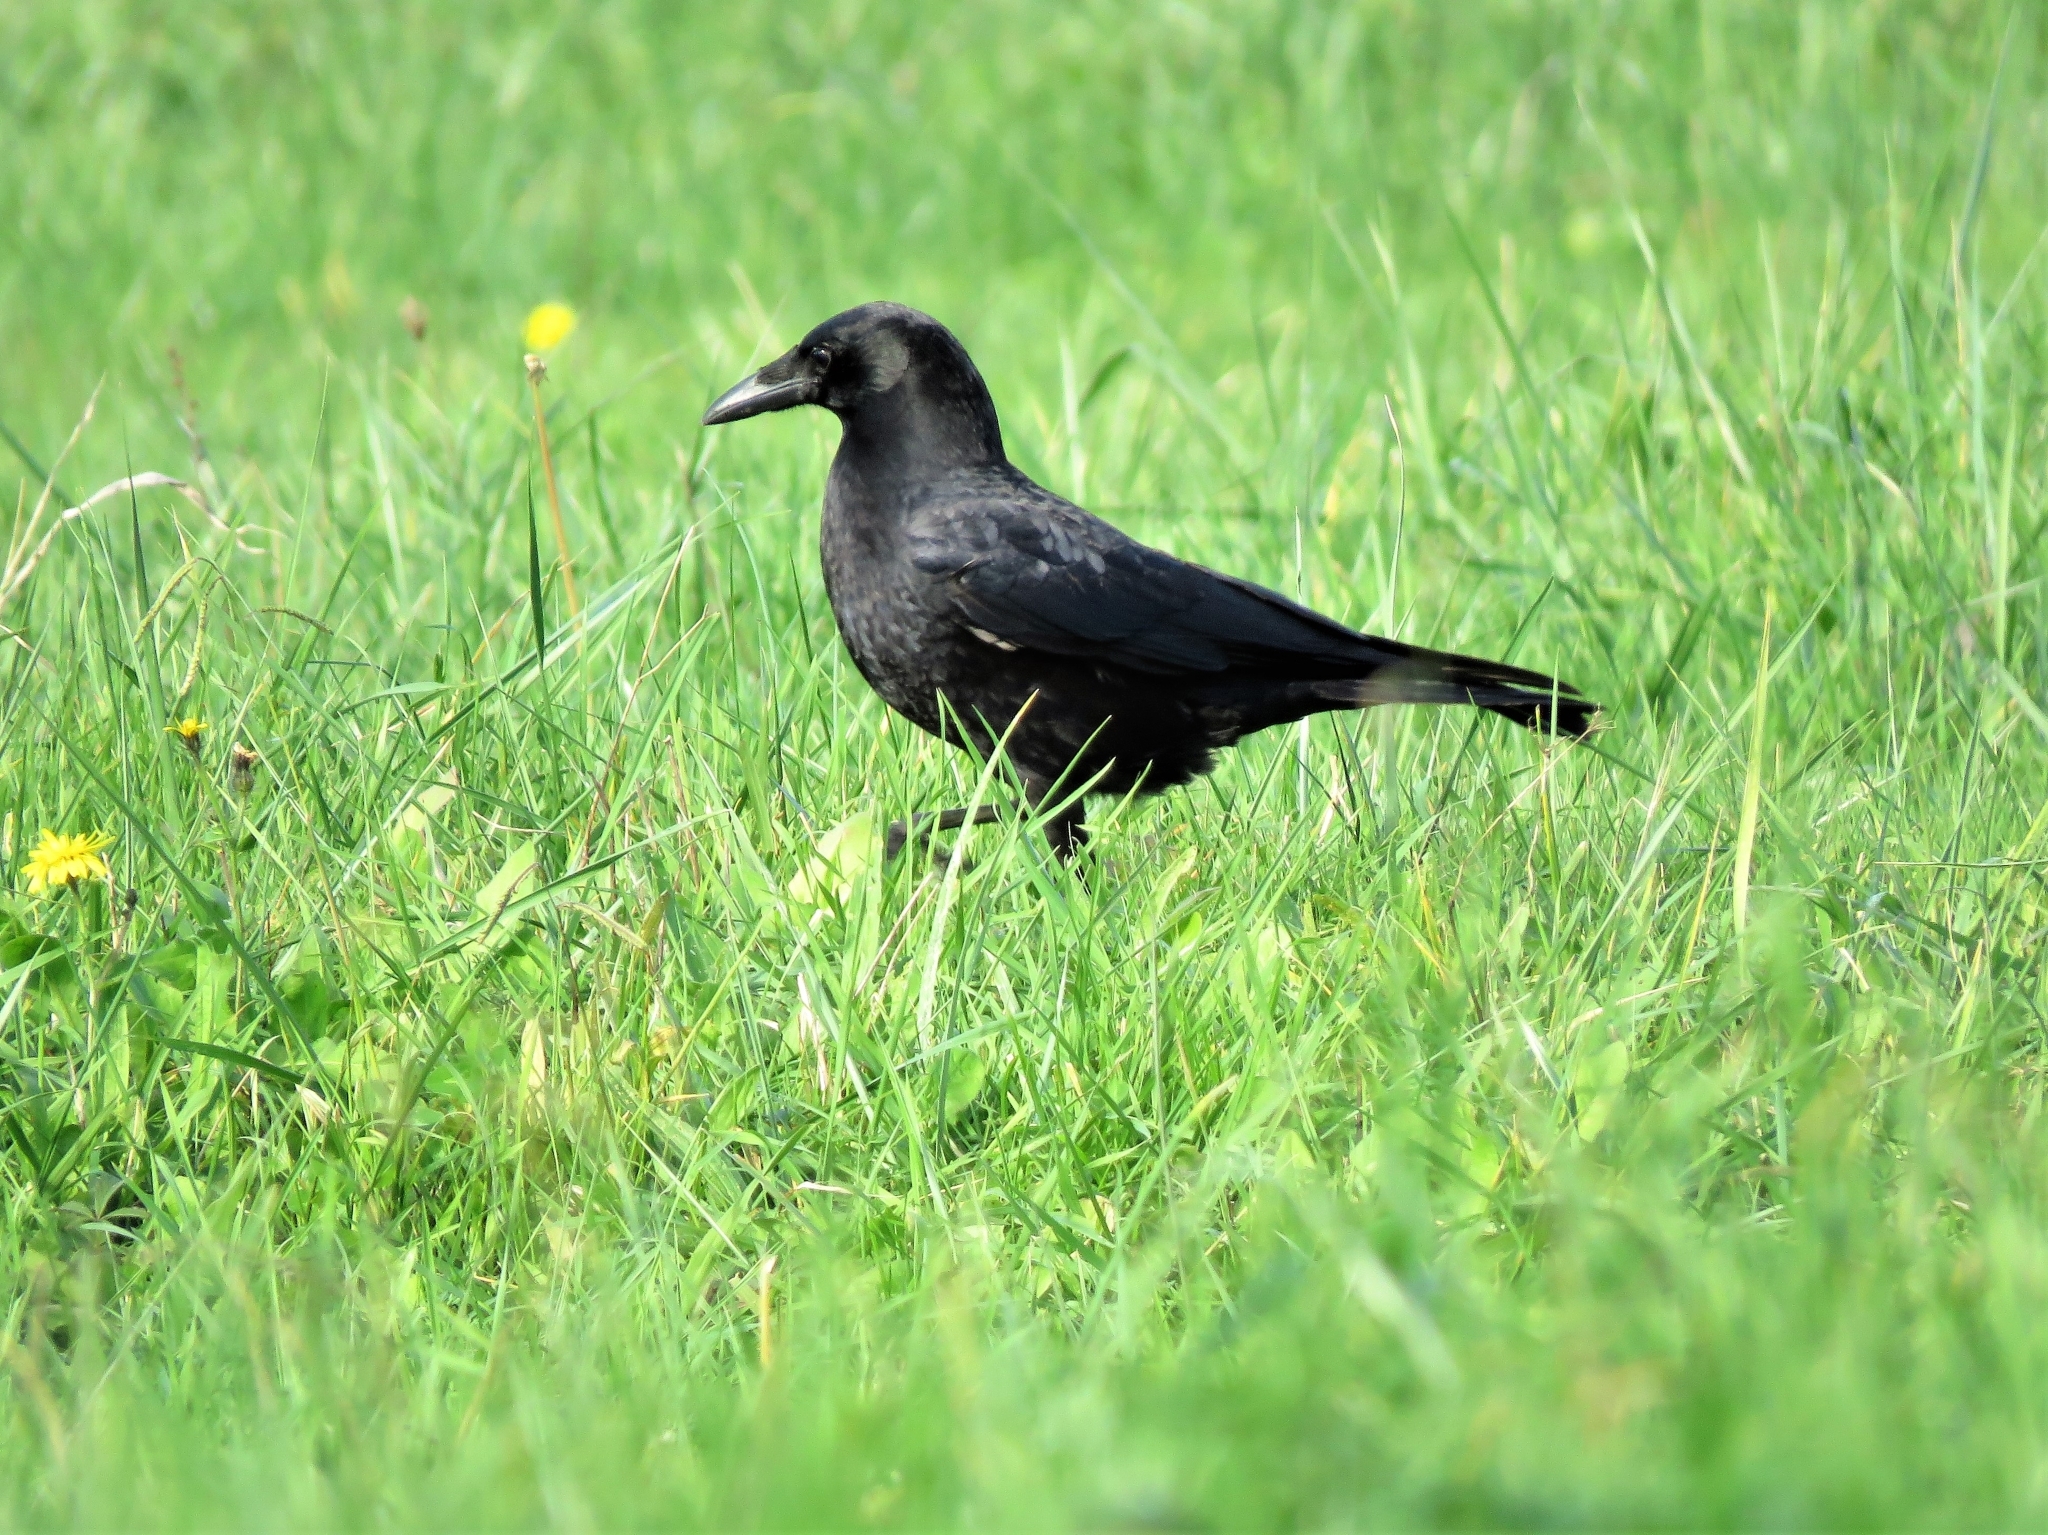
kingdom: Animalia
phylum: Chordata
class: Aves
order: Passeriformes
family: Corvidae
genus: Corvus
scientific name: Corvus corone
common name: Carrion crow
